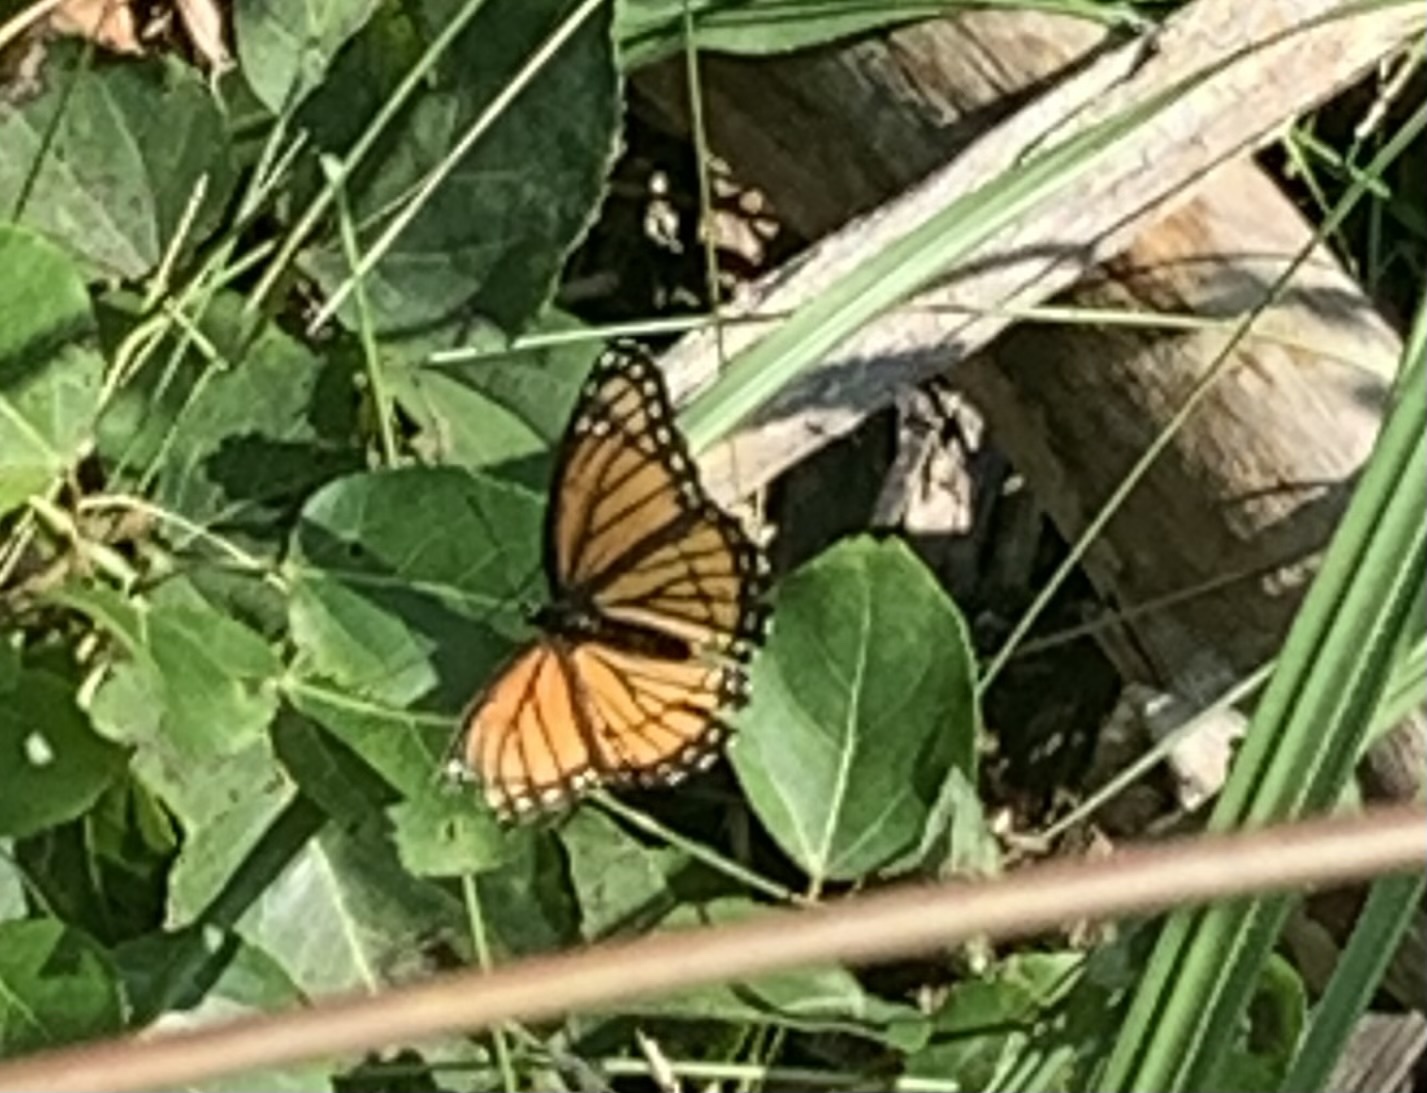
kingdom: Animalia
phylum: Arthropoda
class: Insecta
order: Lepidoptera
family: Nymphalidae
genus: Limenitis
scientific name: Limenitis archippus
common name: Viceroy
